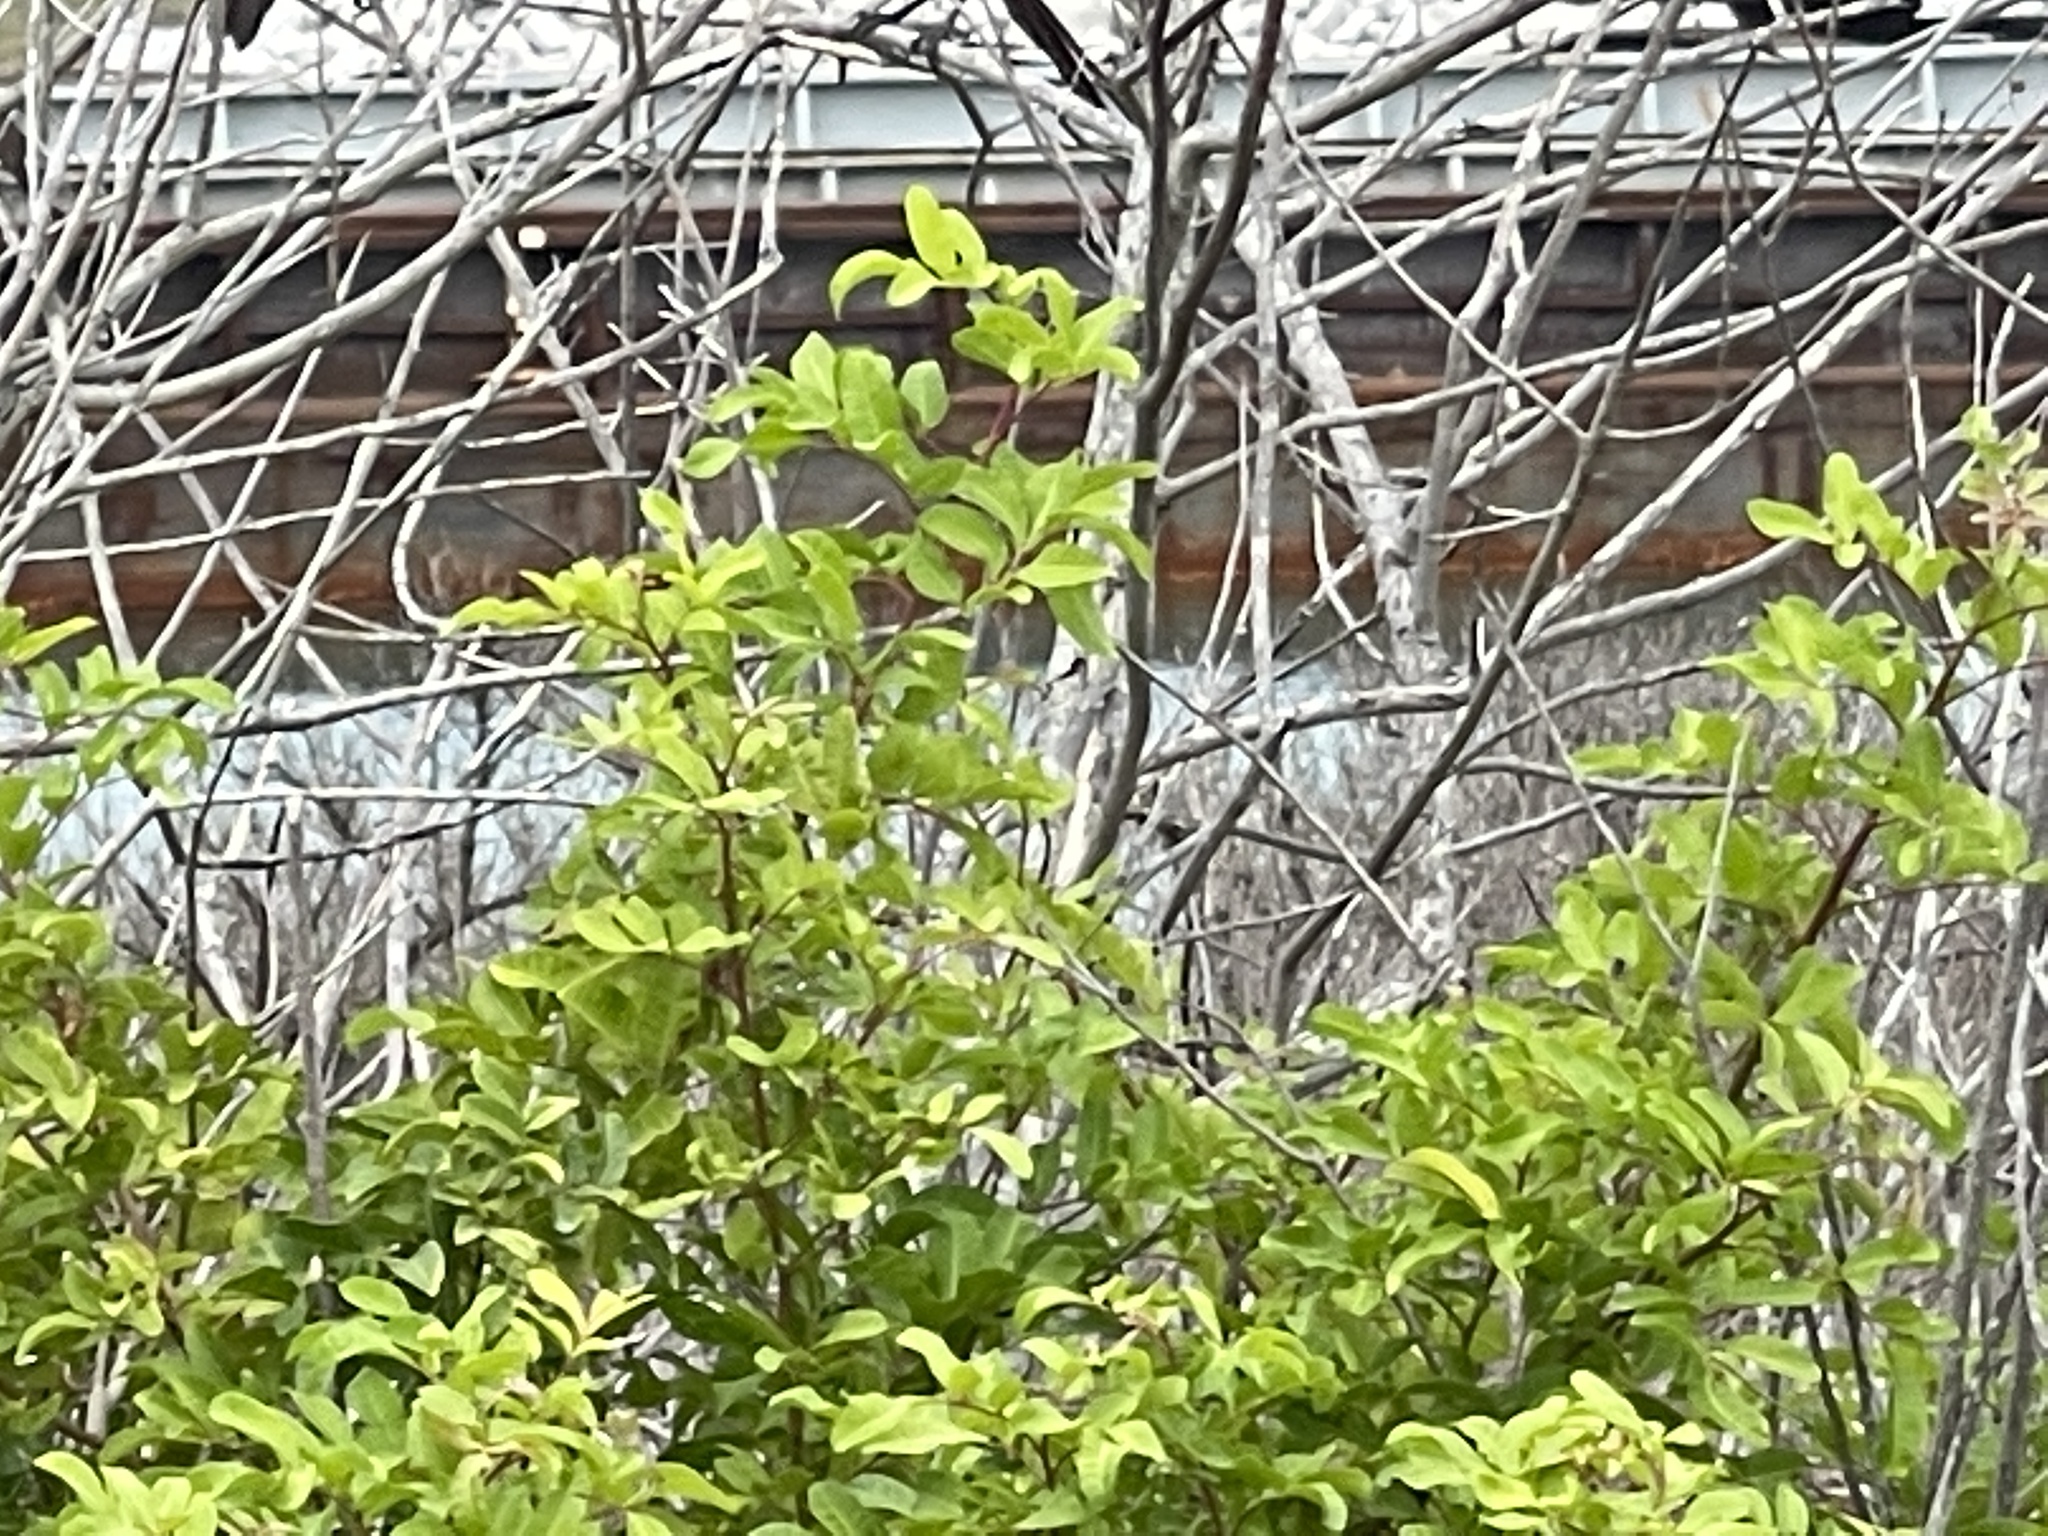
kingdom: Plantae
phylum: Tracheophyta
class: Magnoliopsida
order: Sapindales
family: Anacardiaceae
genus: Schinus
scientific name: Schinus terebinthifolia
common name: Brazilian peppertree
